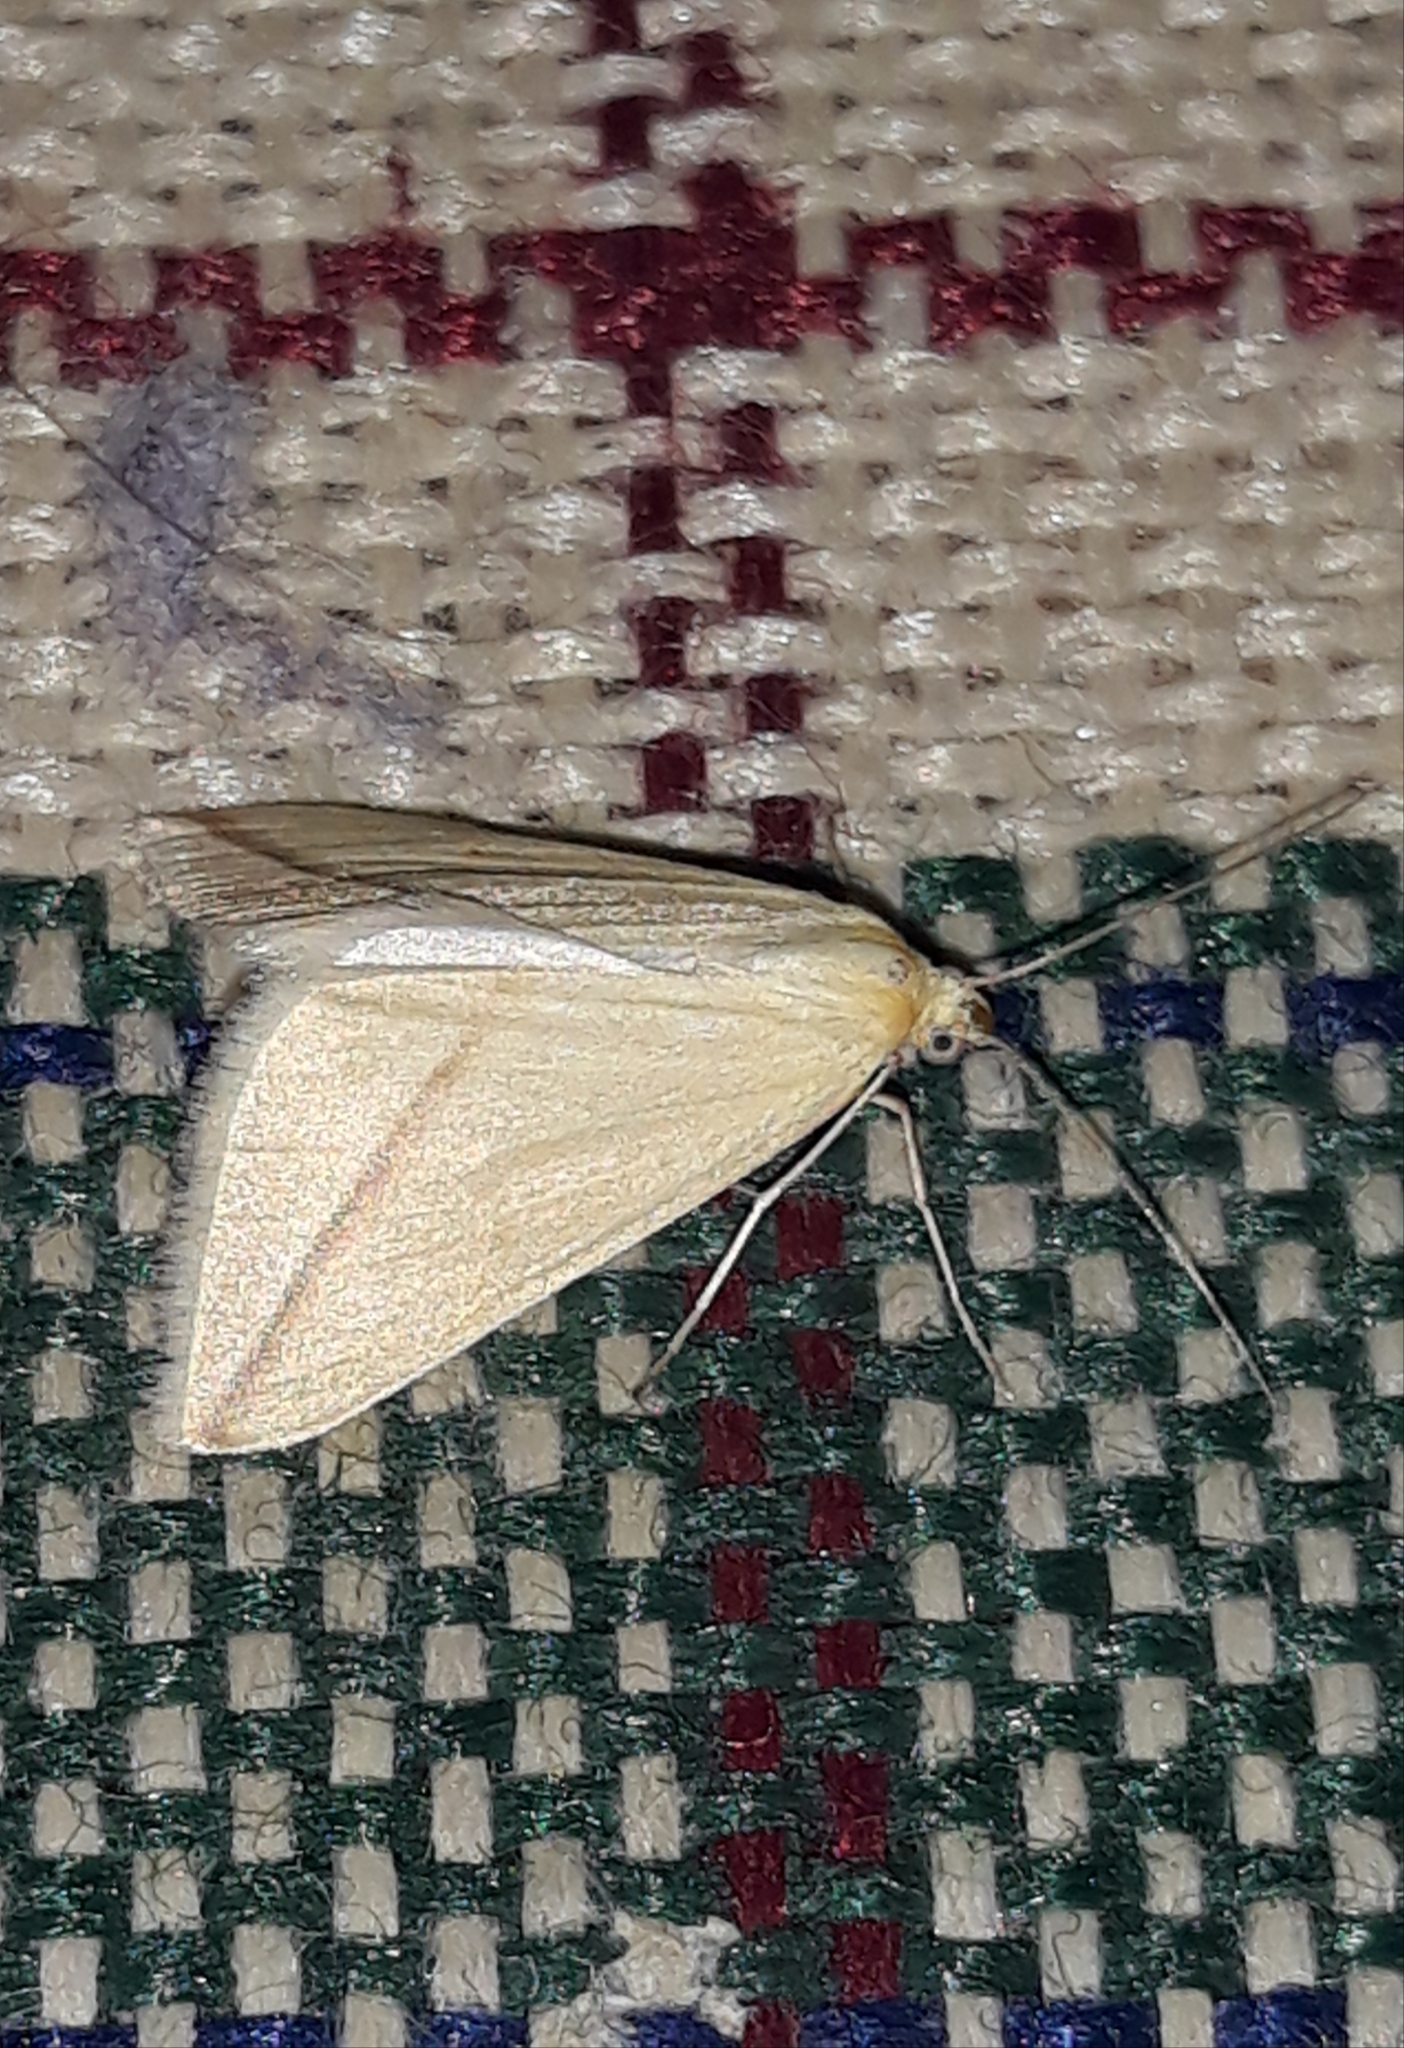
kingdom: Animalia
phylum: Arthropoda
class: Insecta
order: Lepidoptera
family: Geometridae
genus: Rhodometra
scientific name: Rhodometra sacraria
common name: Vestal
